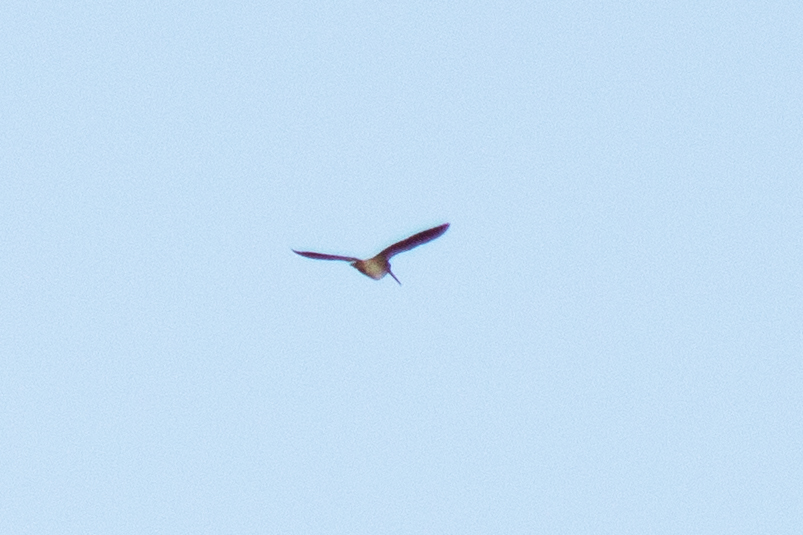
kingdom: Animalia
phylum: Chordata
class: Aves
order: Charadriiformes
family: Scolopacidae
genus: Gallinago
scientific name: Gallinago gallinago
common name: Common snipe
